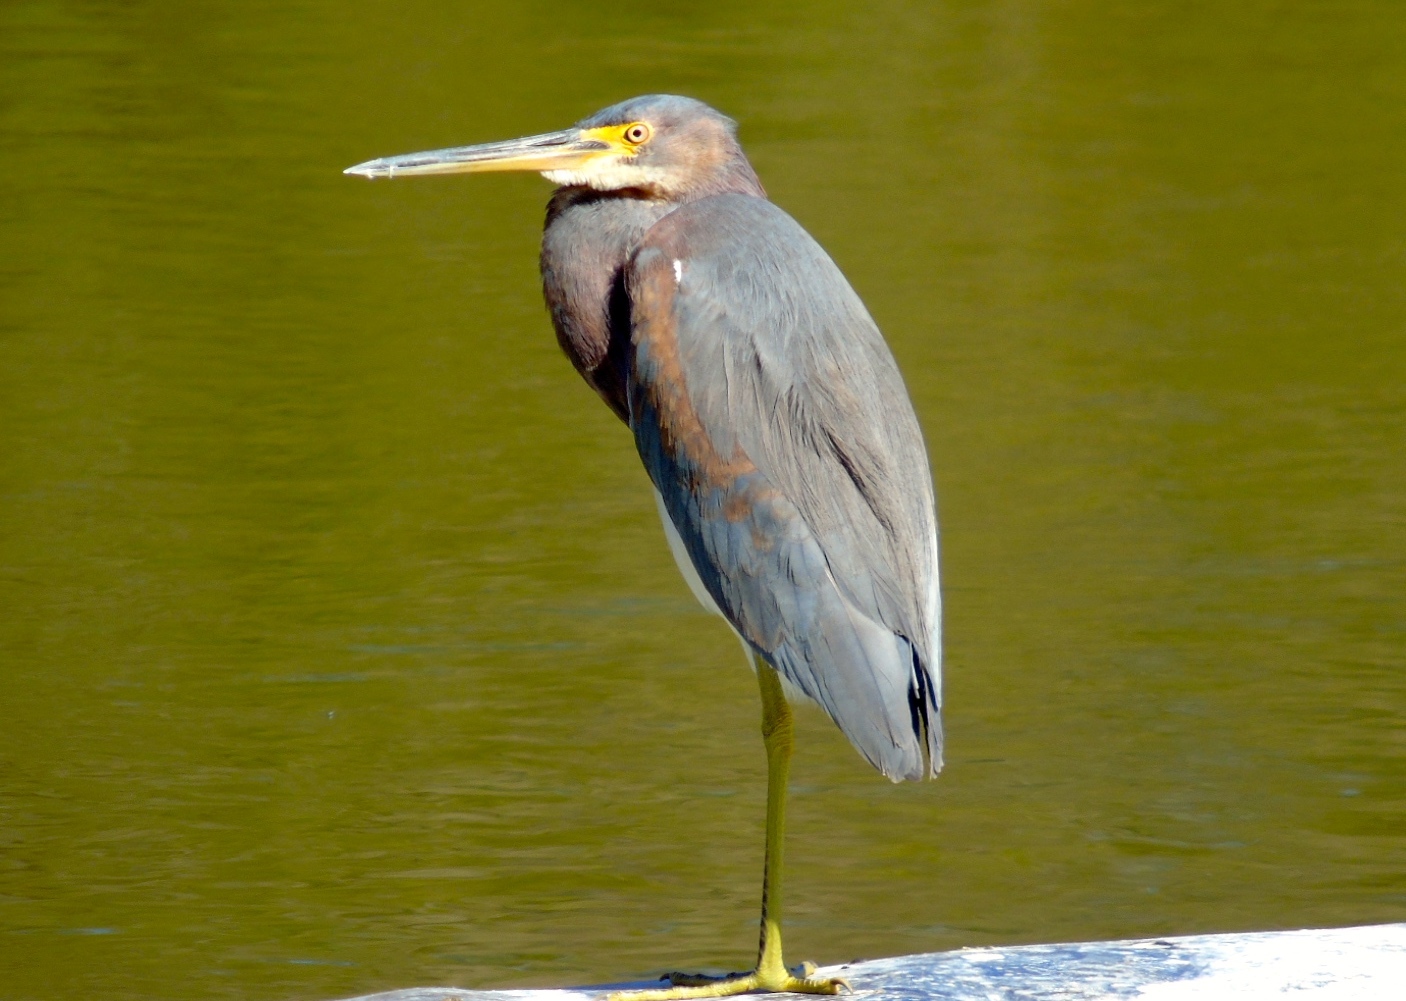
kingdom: Animalia
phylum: Chordata
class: Aves
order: Pelecaniformes
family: Ardeidae
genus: Egretta
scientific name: Egretta tricolor
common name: Tricolored heron
